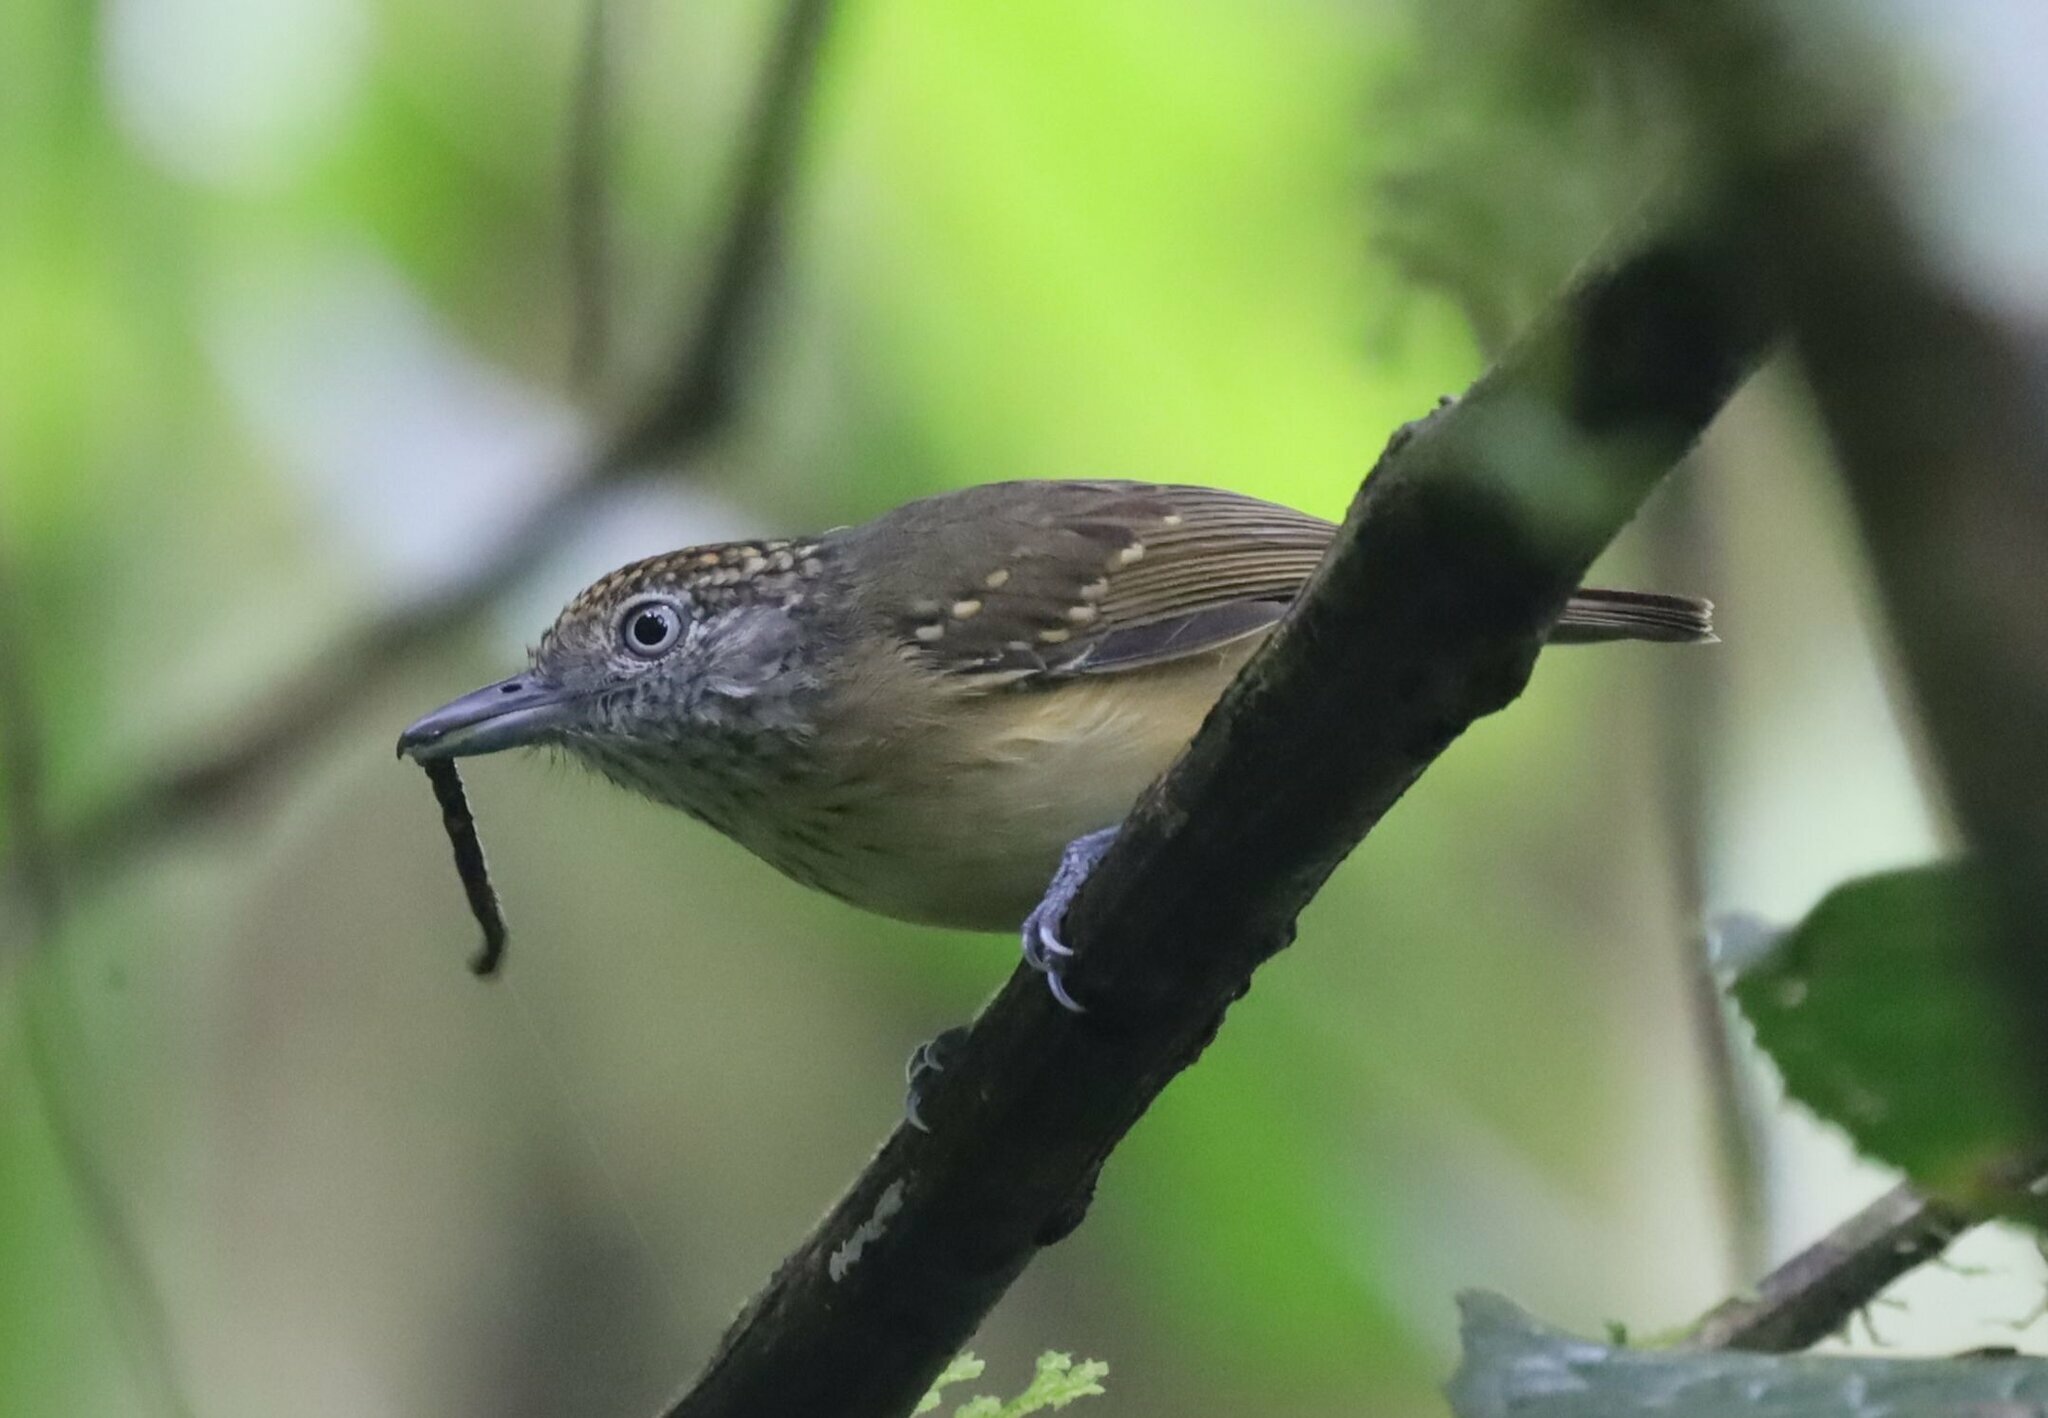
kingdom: Animalia
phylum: Chordata
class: Aves
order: Passeriformes
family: Thamnophilidae
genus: Dysithamnus
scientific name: Dysithamnus puncticeps
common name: Spot-crowned antvireo
